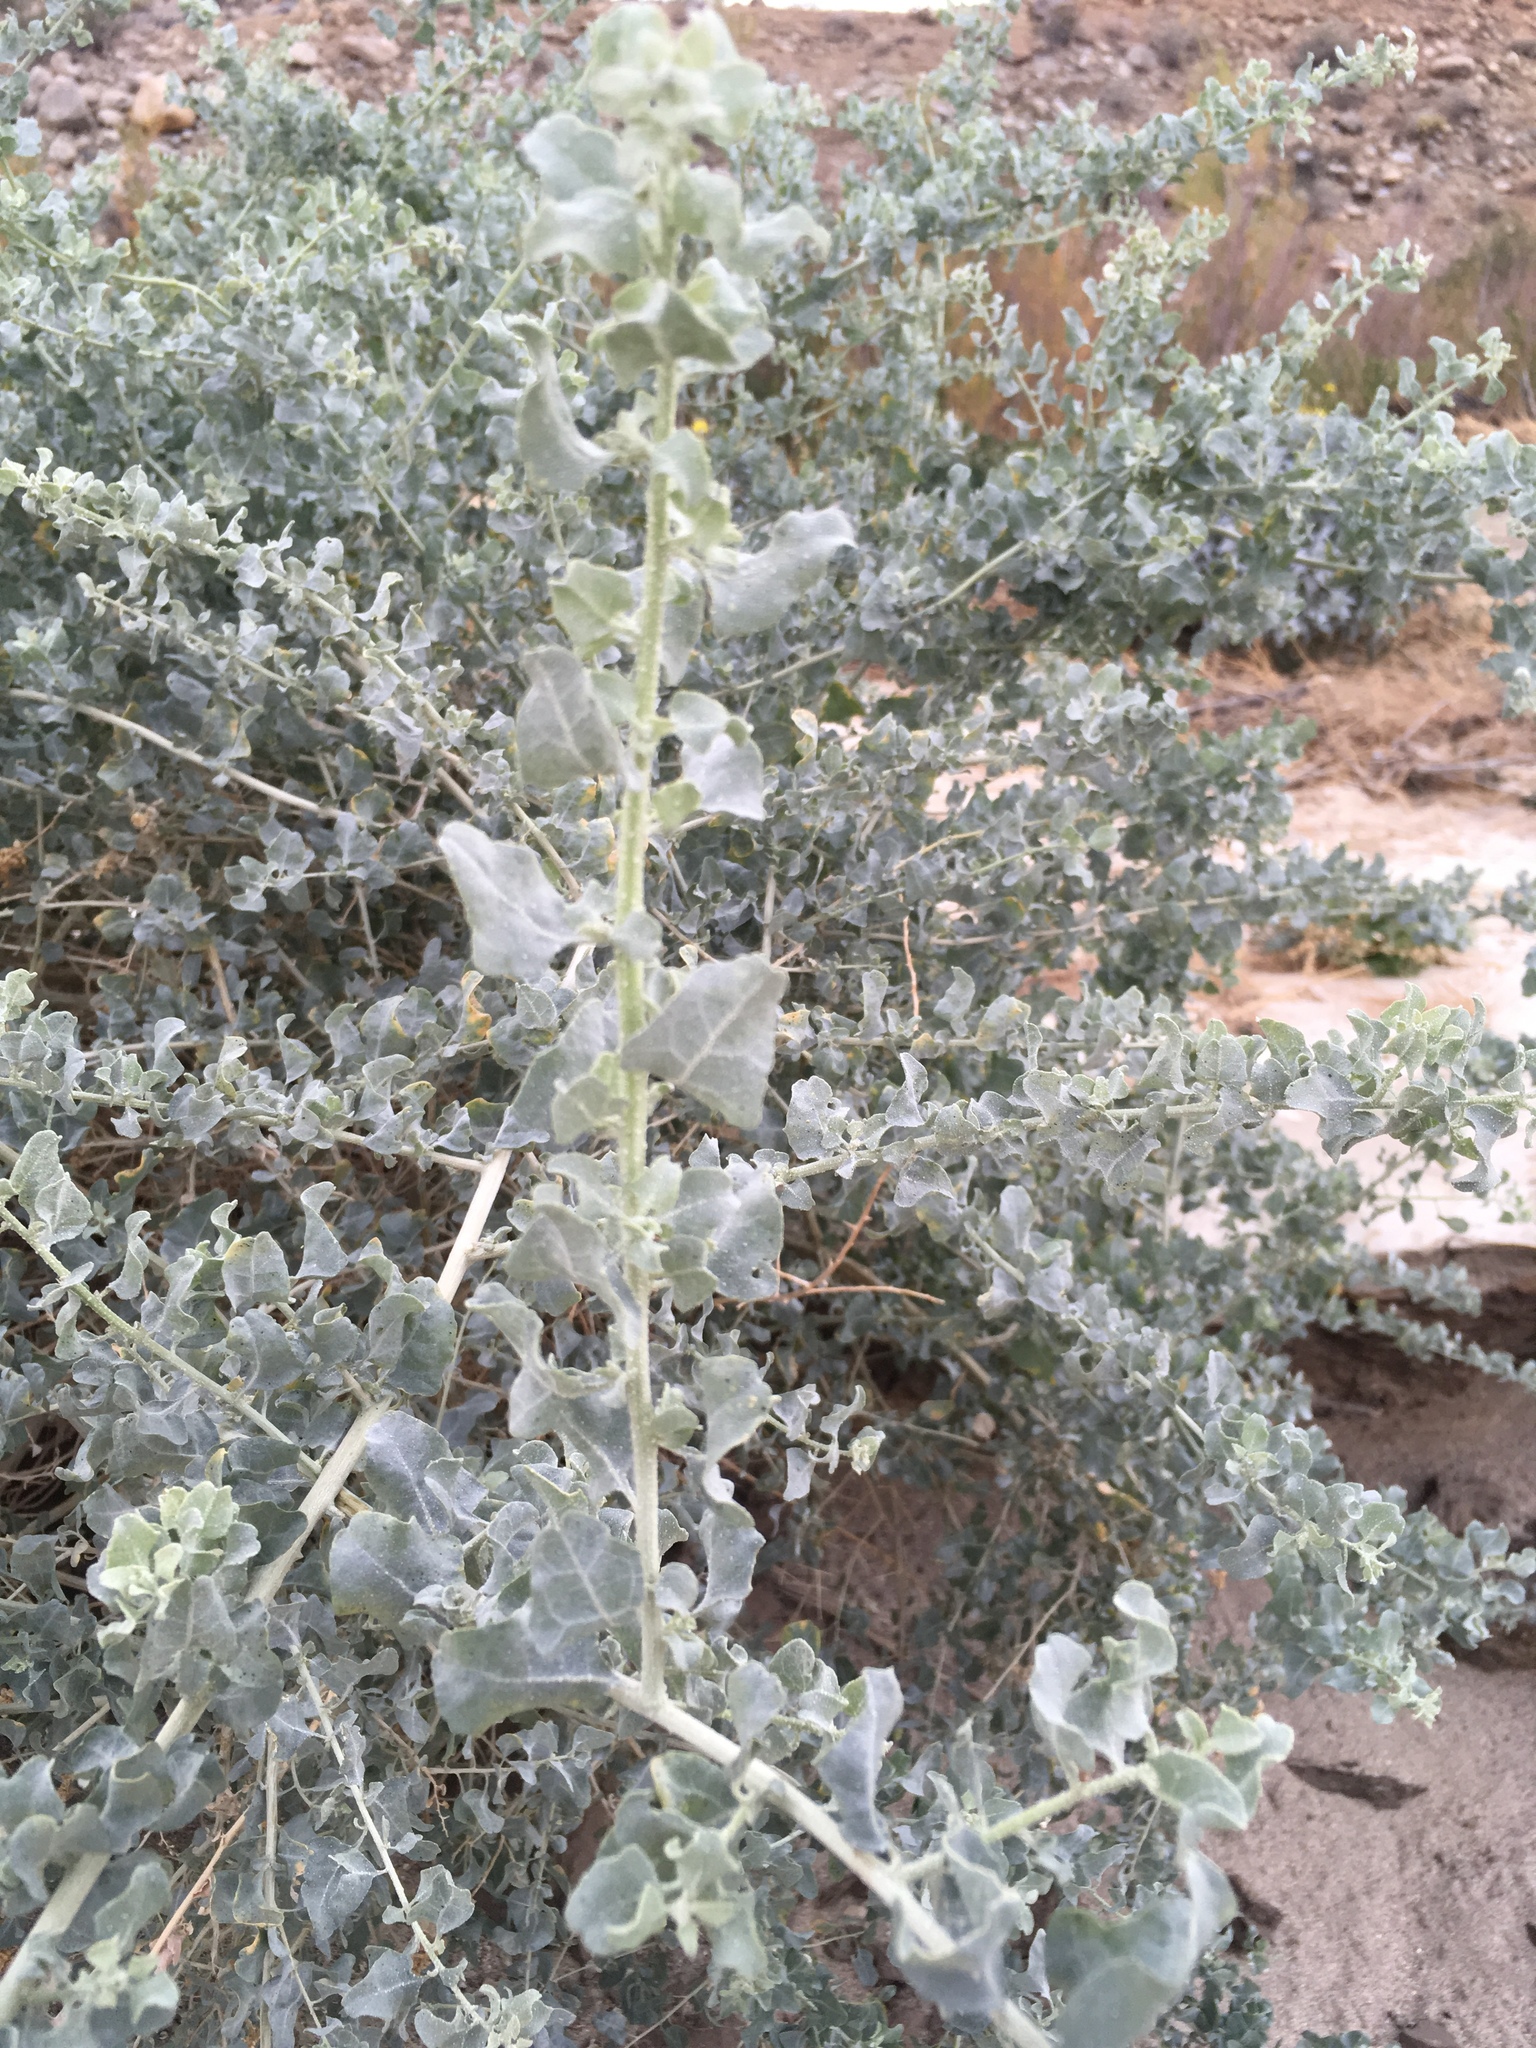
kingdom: Plantae
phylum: Tracheophyta
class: Magnoliopsida
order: Caryophyllales
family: Amaranthaceae
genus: Atriplex
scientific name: Atriplex lentiformis
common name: Big saltbush
